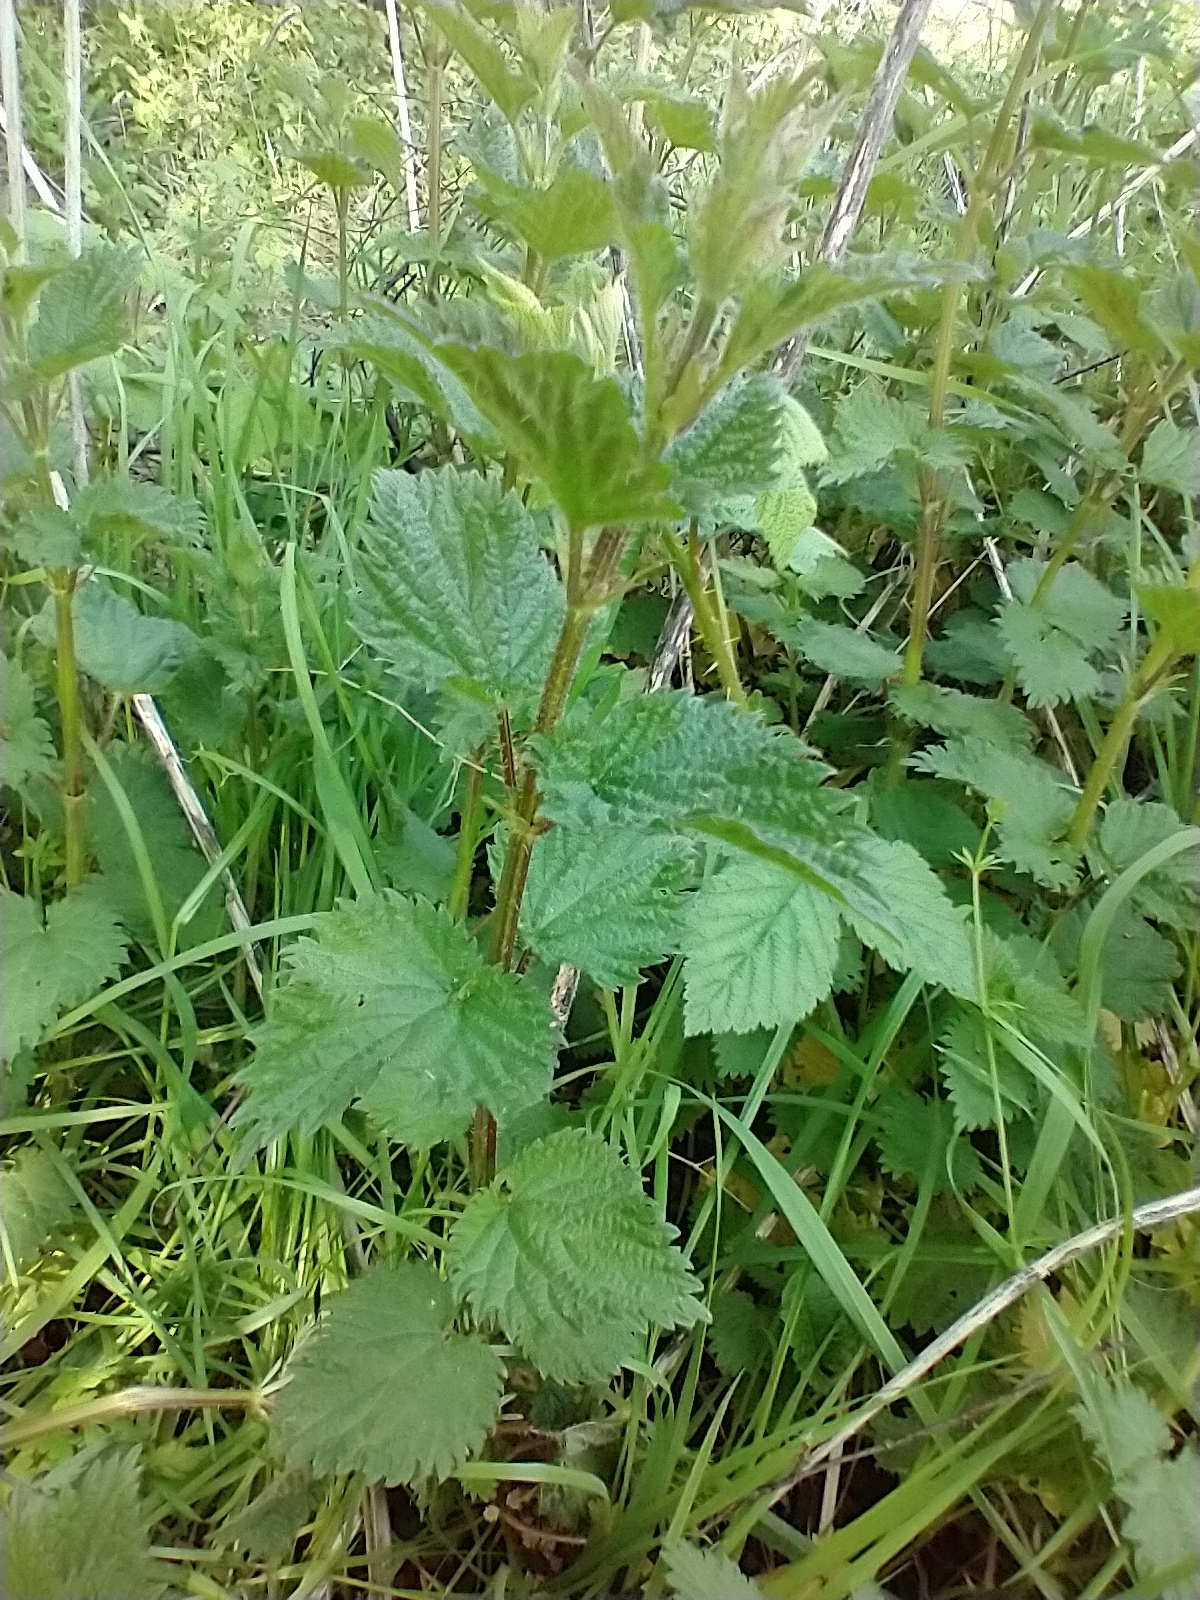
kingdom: Plantae
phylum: Tracheophyta
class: Magnoliopsida
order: Rosales
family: Urticaceae
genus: Urtica
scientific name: Urtica dioica
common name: Common nettle
